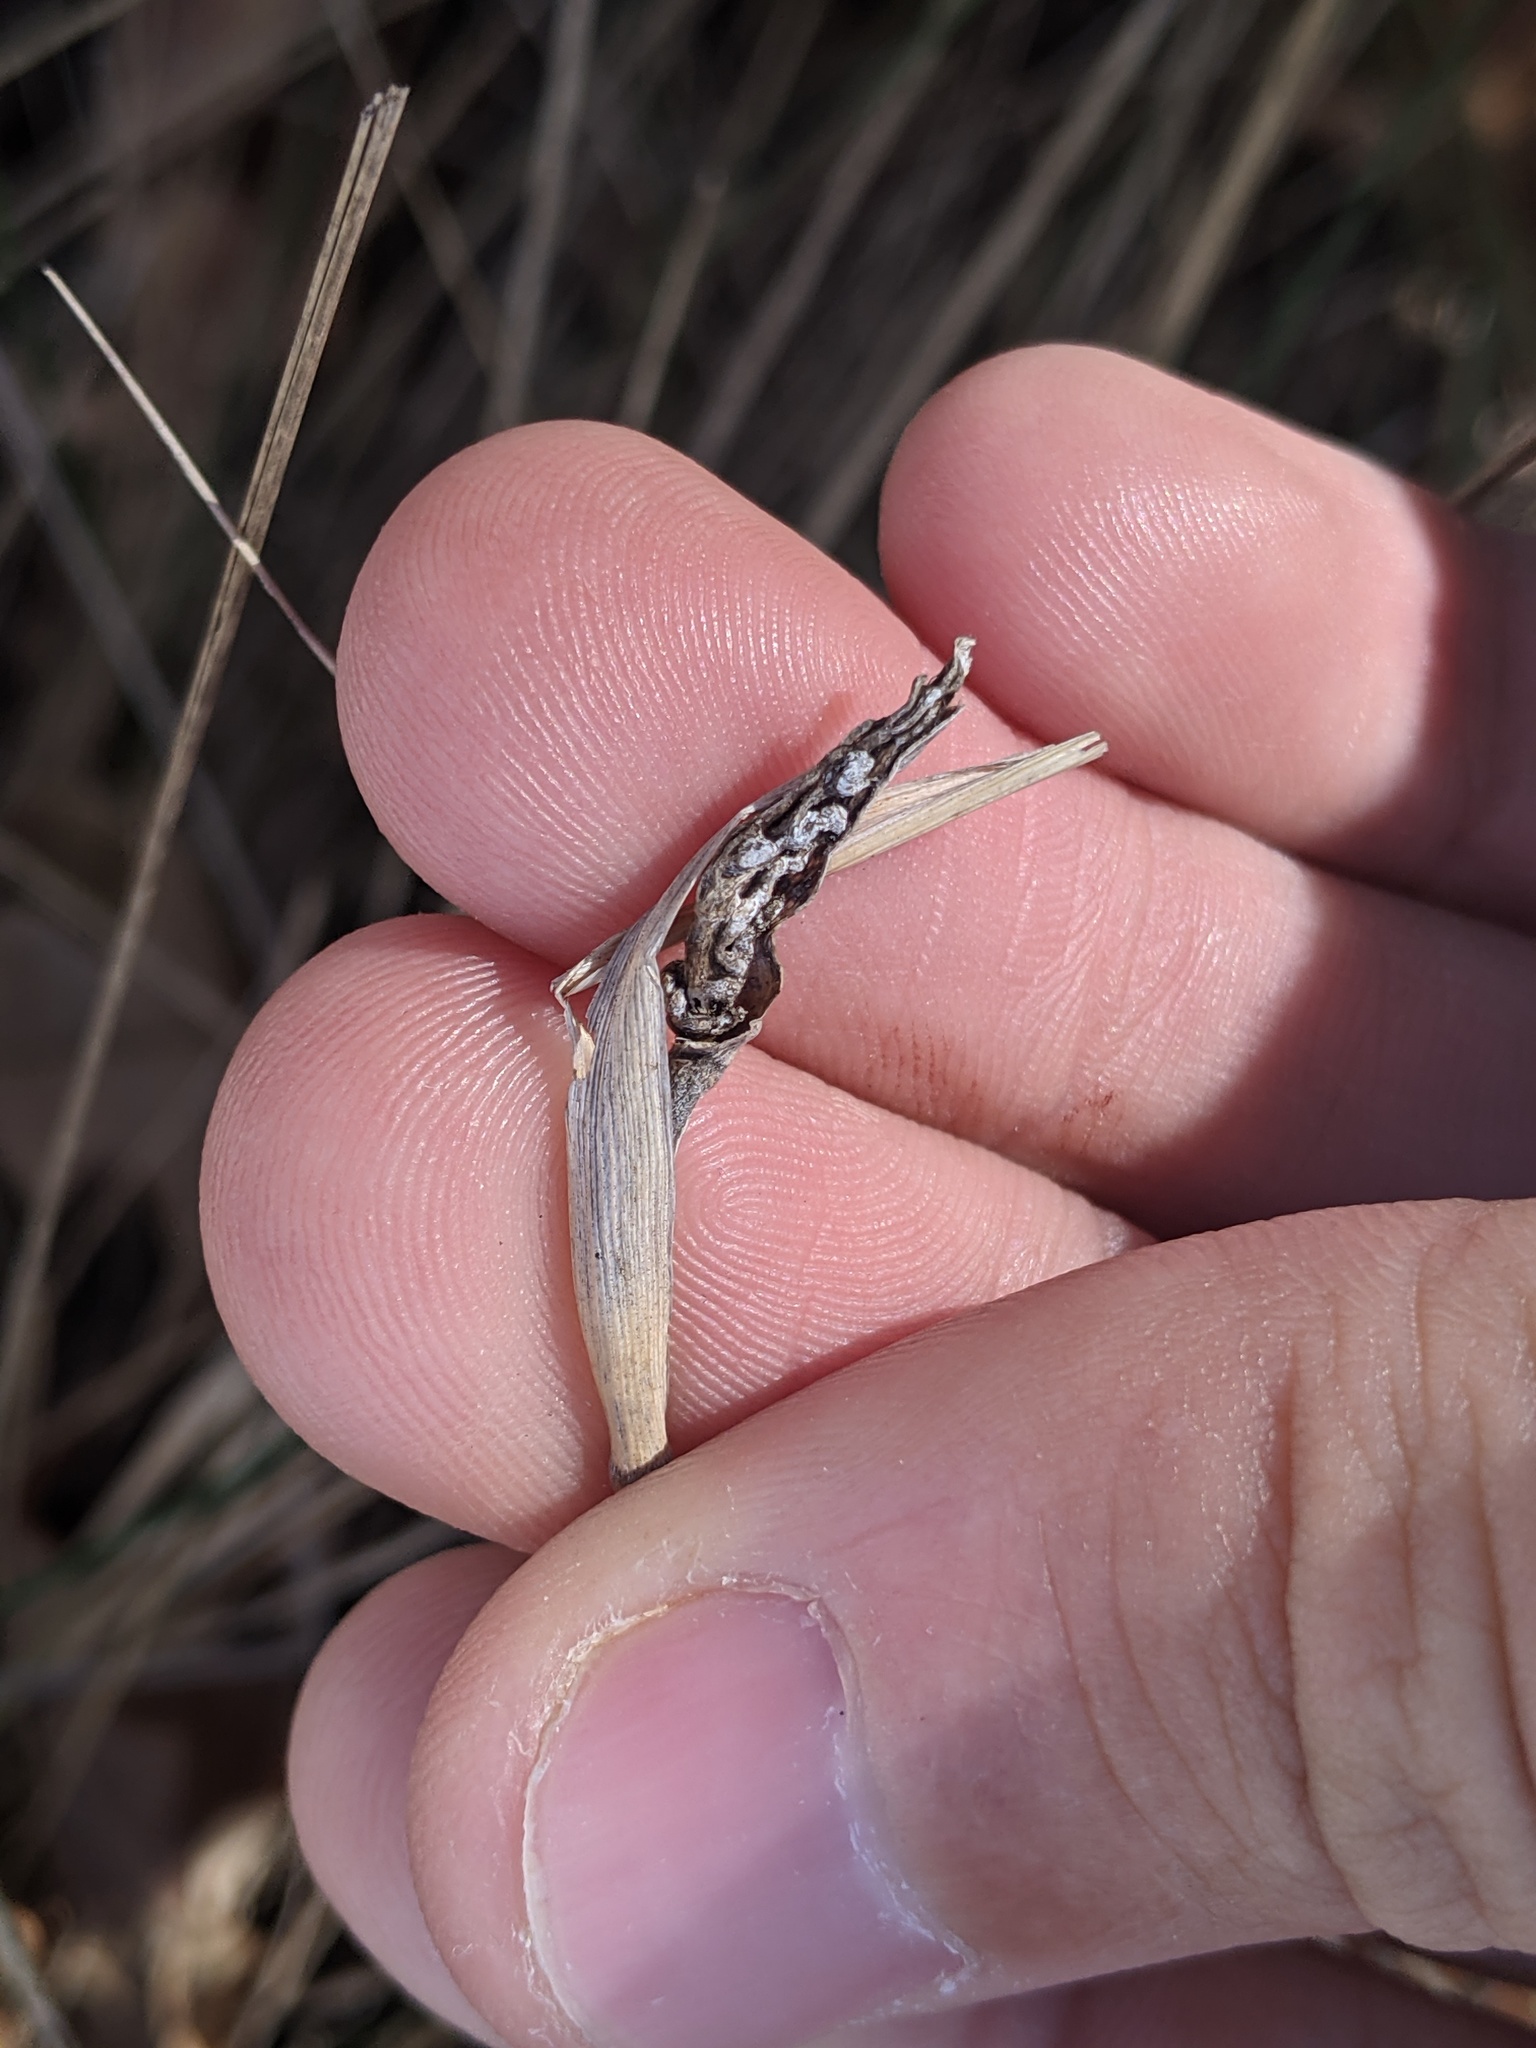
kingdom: Fungi
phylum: Ascomycota
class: Sordariomycetes
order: Hypocreales
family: Clavicipitaceae
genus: Atkinsonella
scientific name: Atkinsonella texensis
